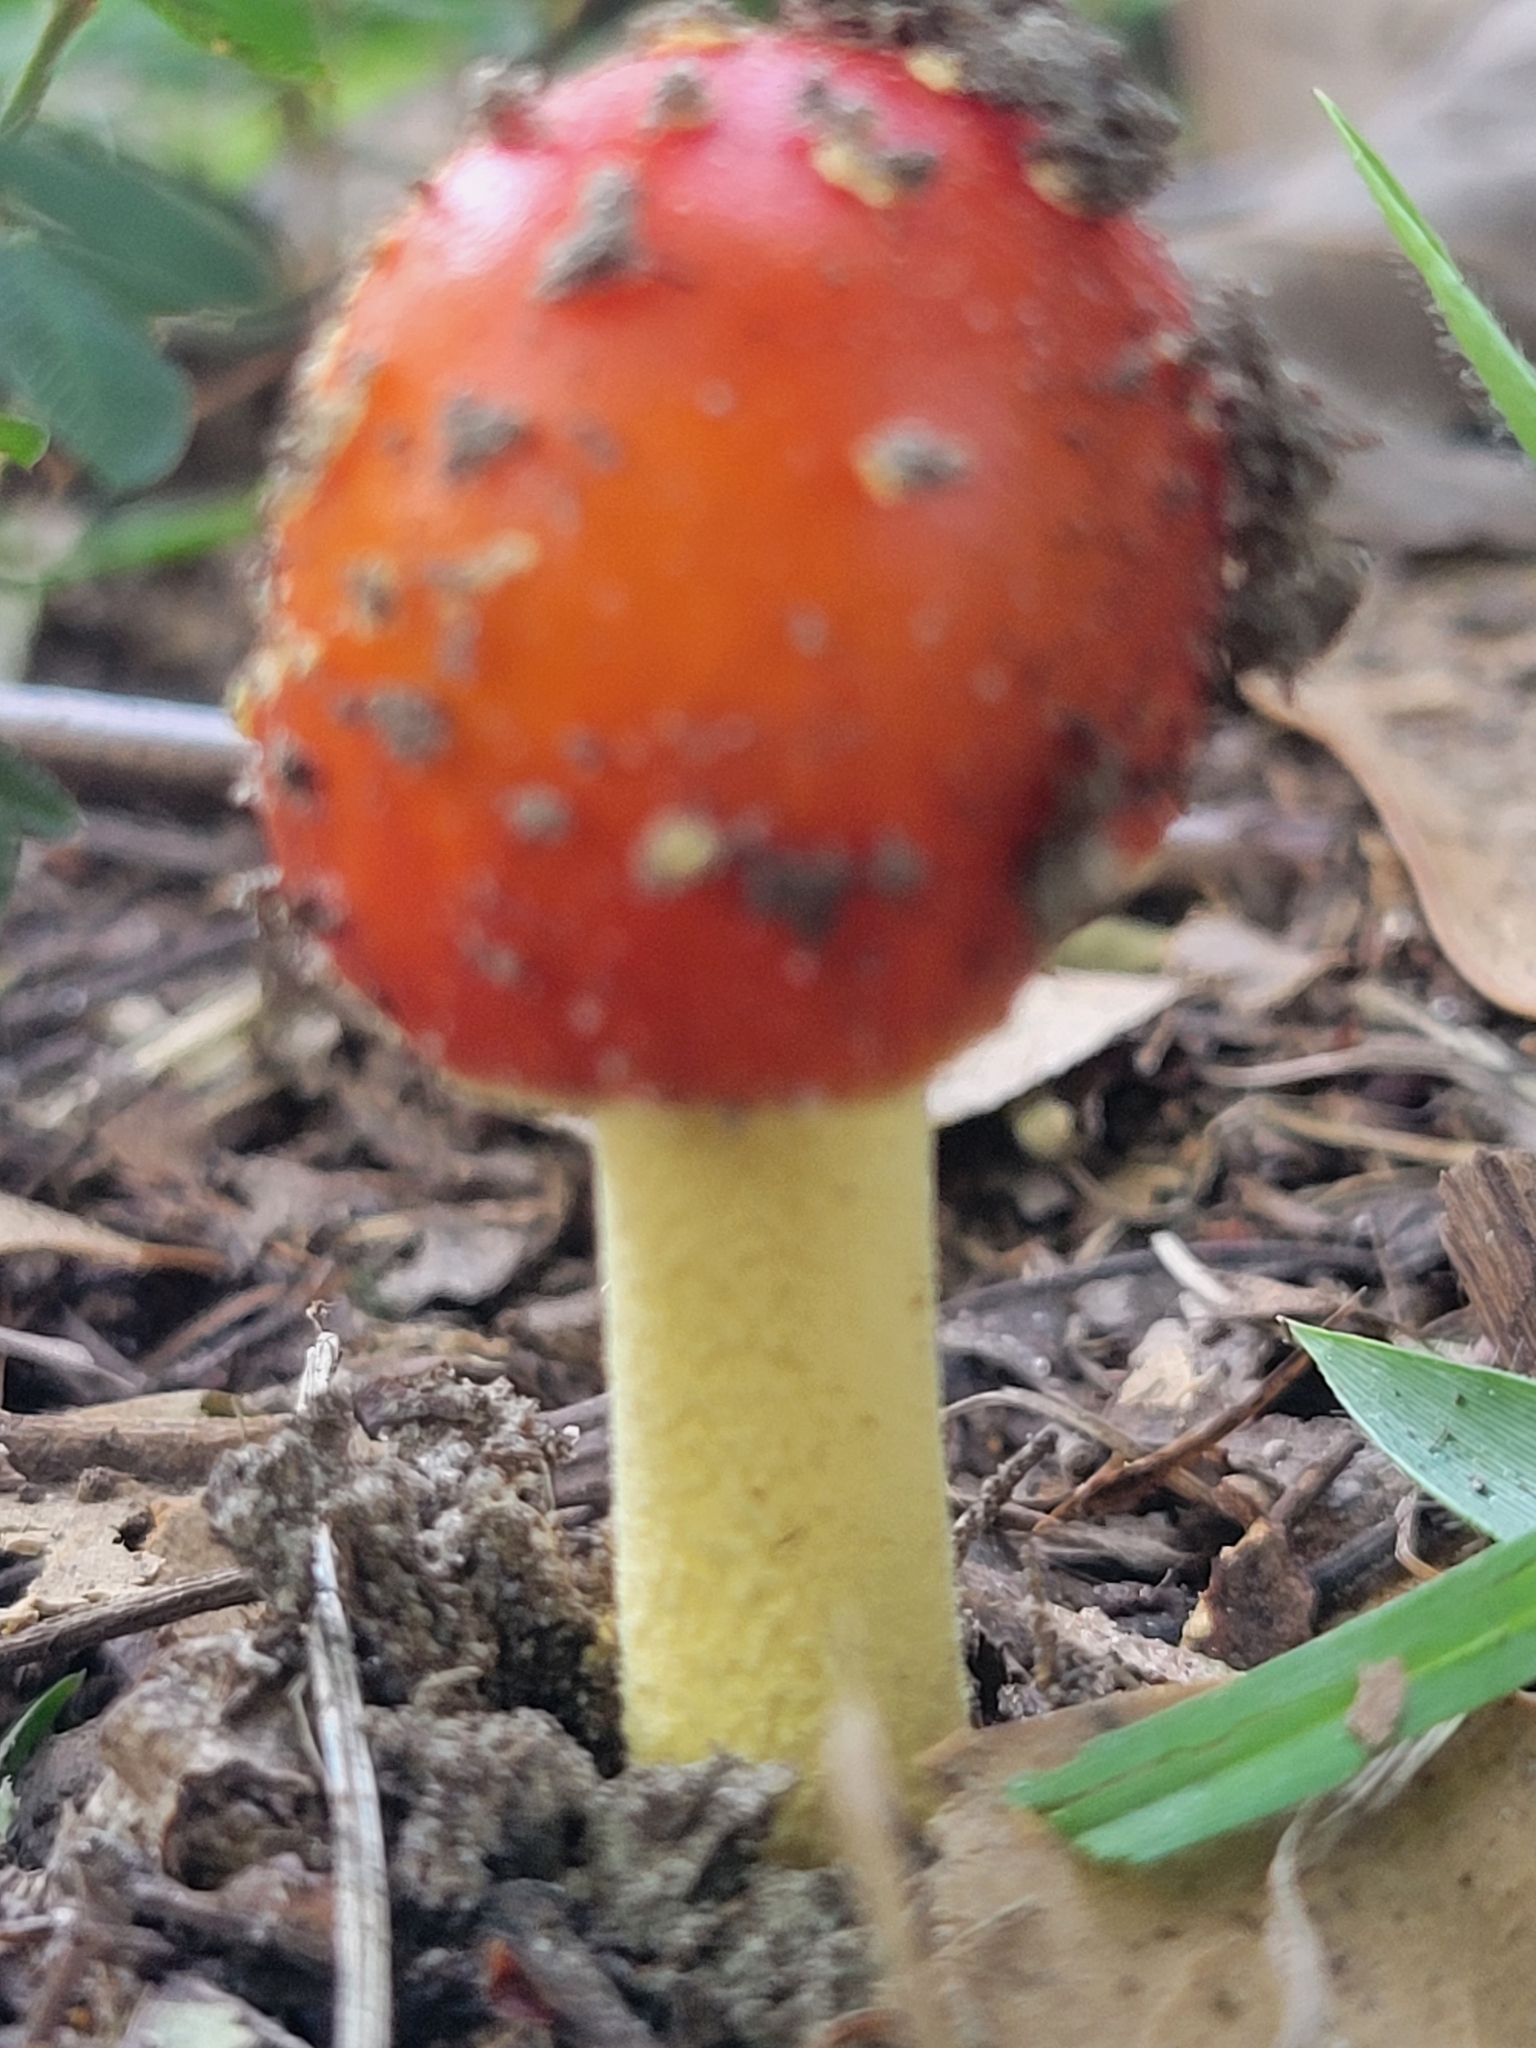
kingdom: Fungi
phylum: Basidiomycota
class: Agaricomycetes
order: Agaricales
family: Amanitaceae
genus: Amanita
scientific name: Amanita parcivolvata
